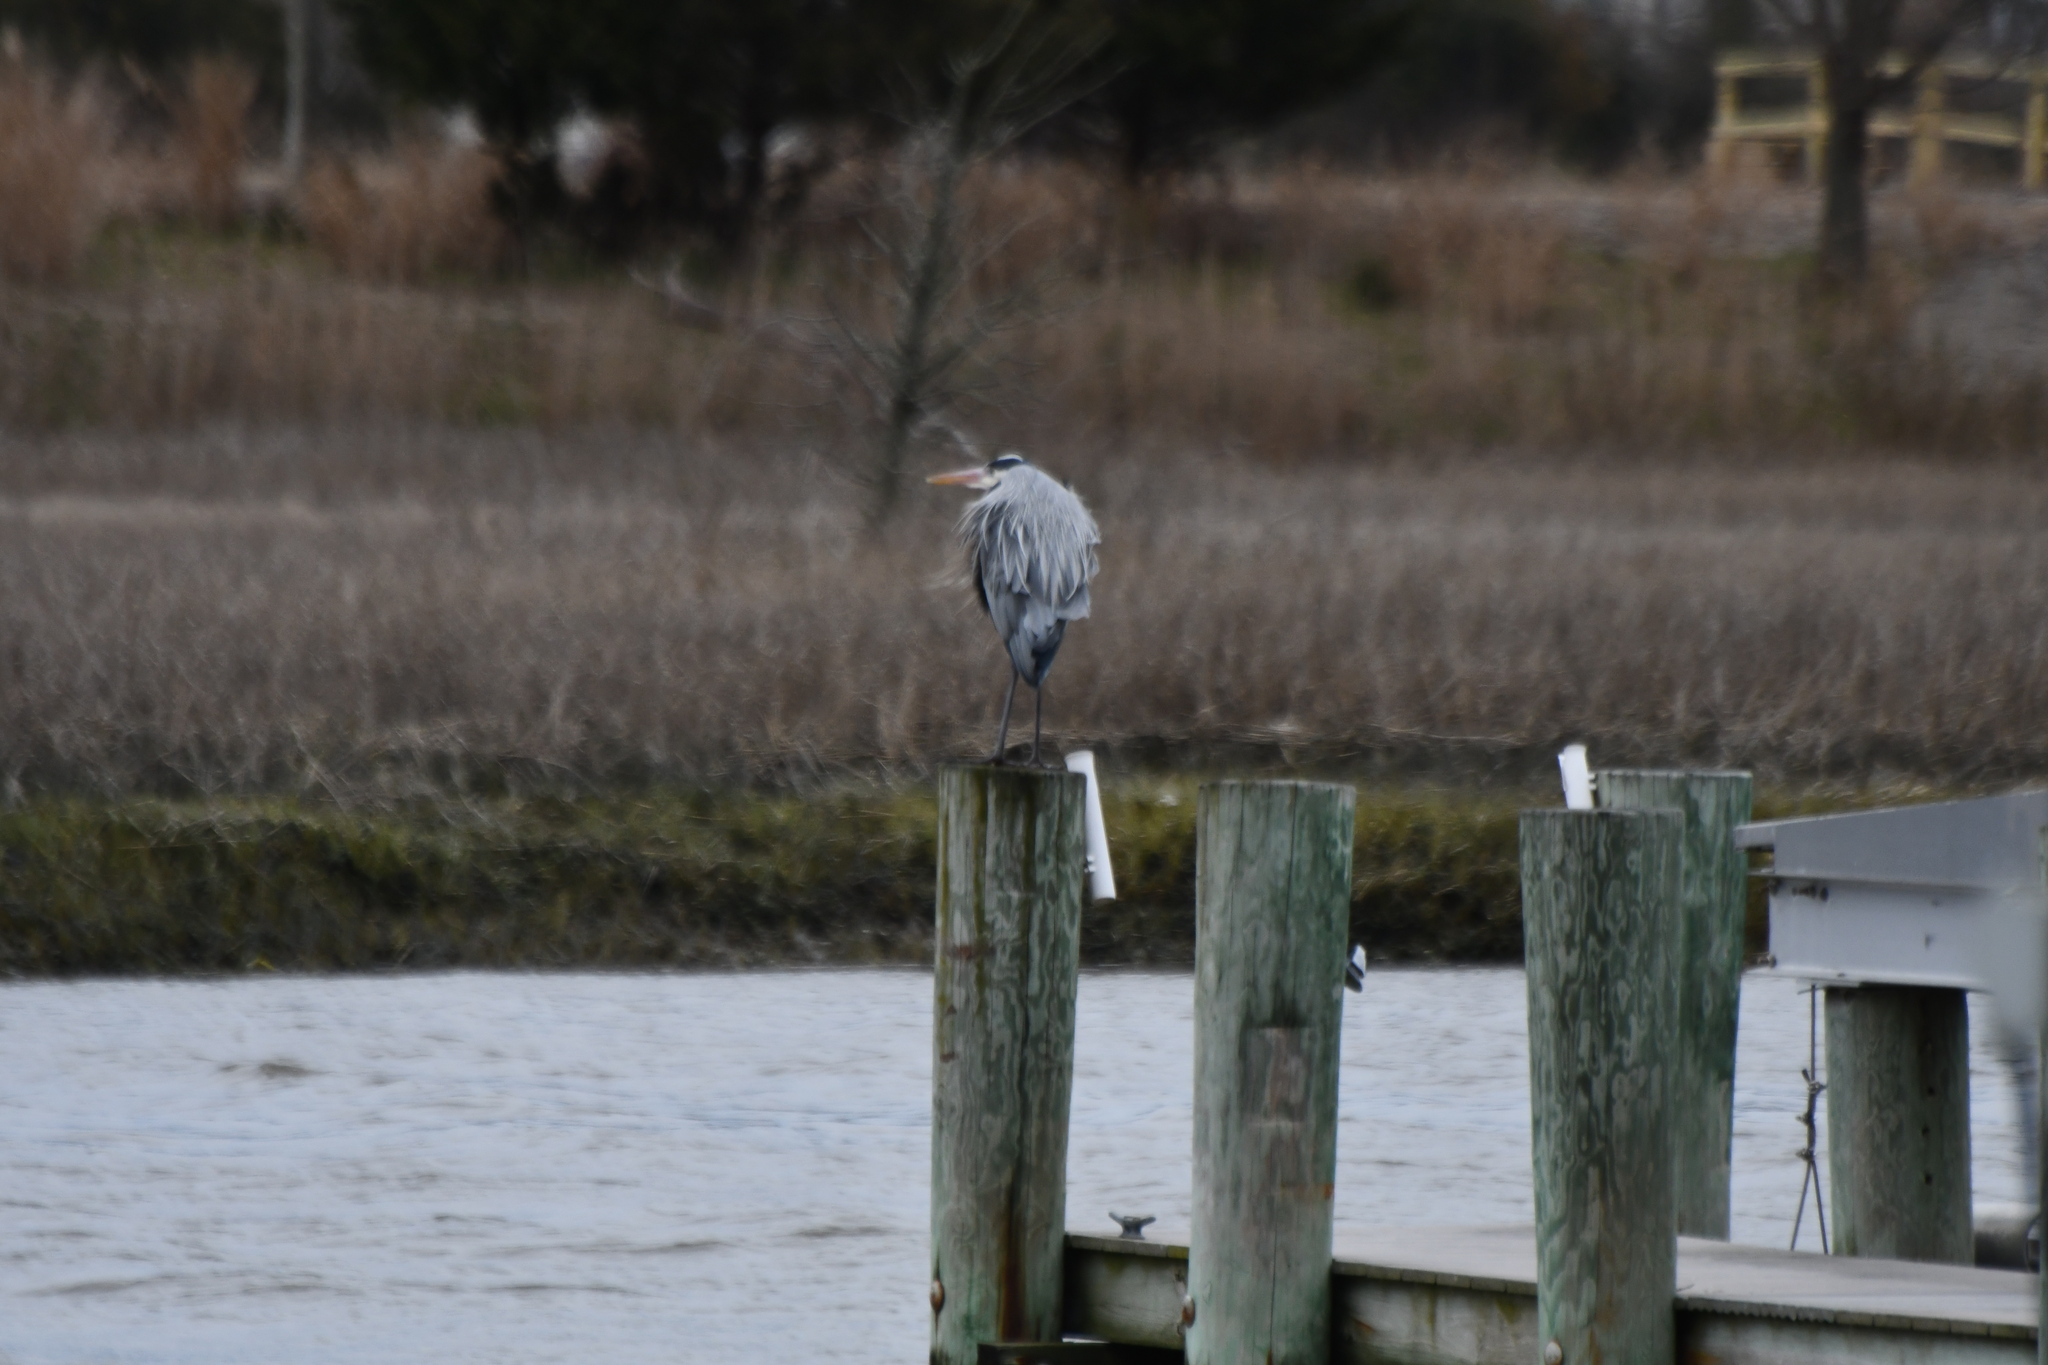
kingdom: Animalia
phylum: Chordata
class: Aves
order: Pelecaniformes
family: Ardeidae
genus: Ardea
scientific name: Ardea herodias
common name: Great blue heron
